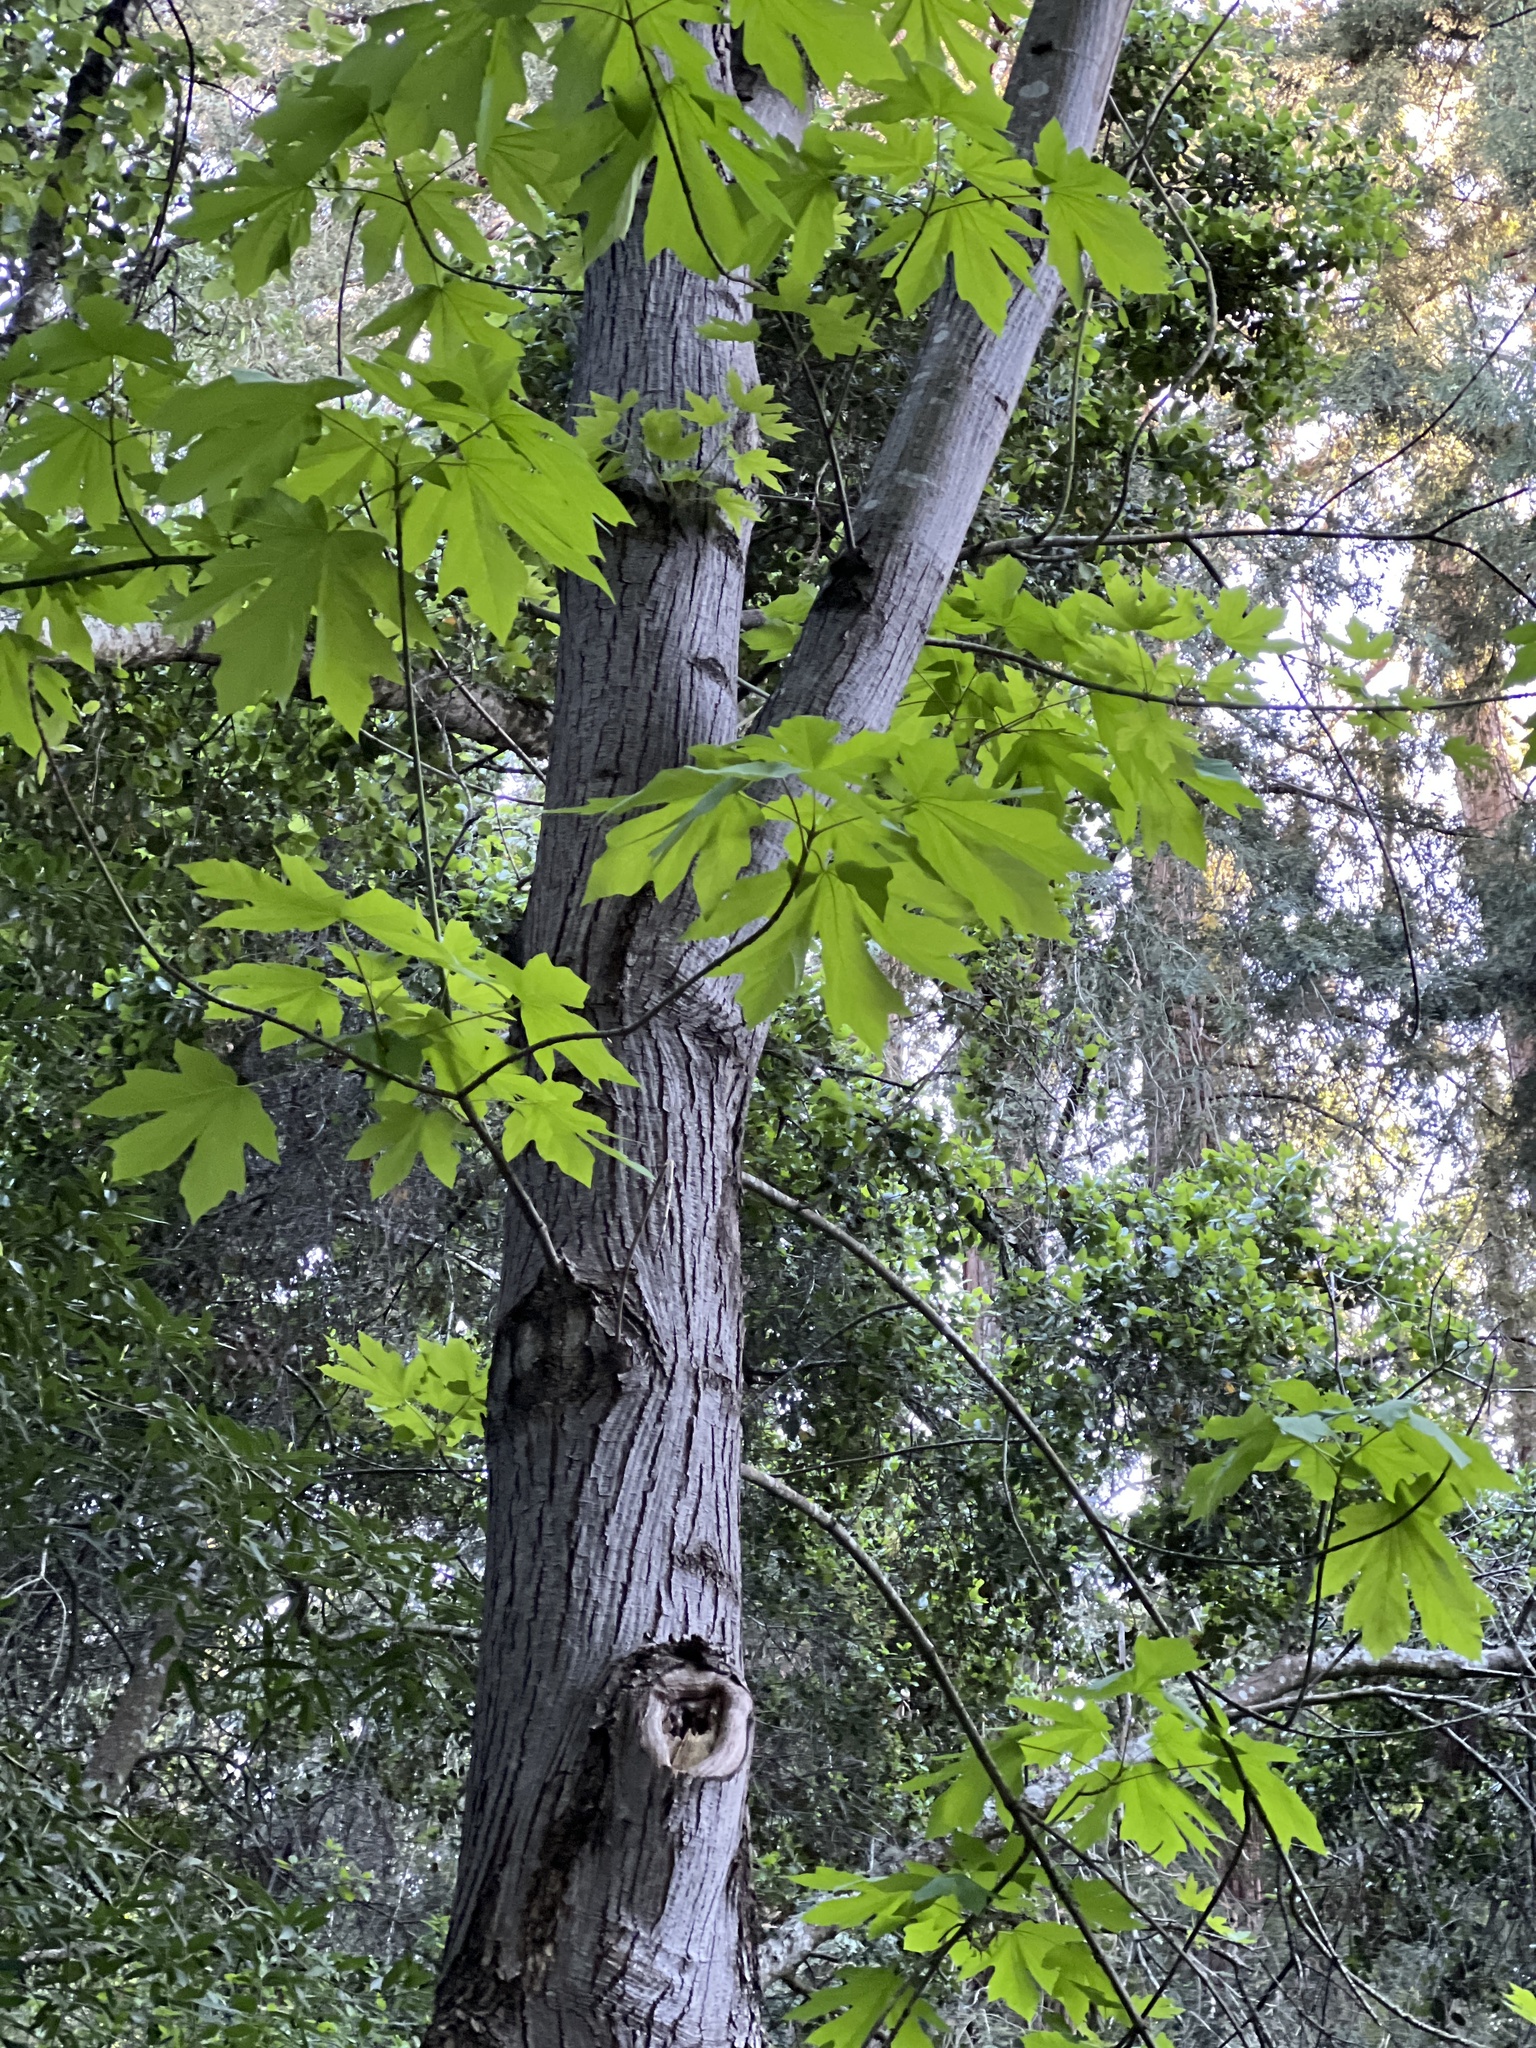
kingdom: Plantae
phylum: Tracheophyta
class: Magnoliopsida
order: Sapindales
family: Sapindaceae
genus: Acer
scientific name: Acer macrophyllum
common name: Oregon maple
